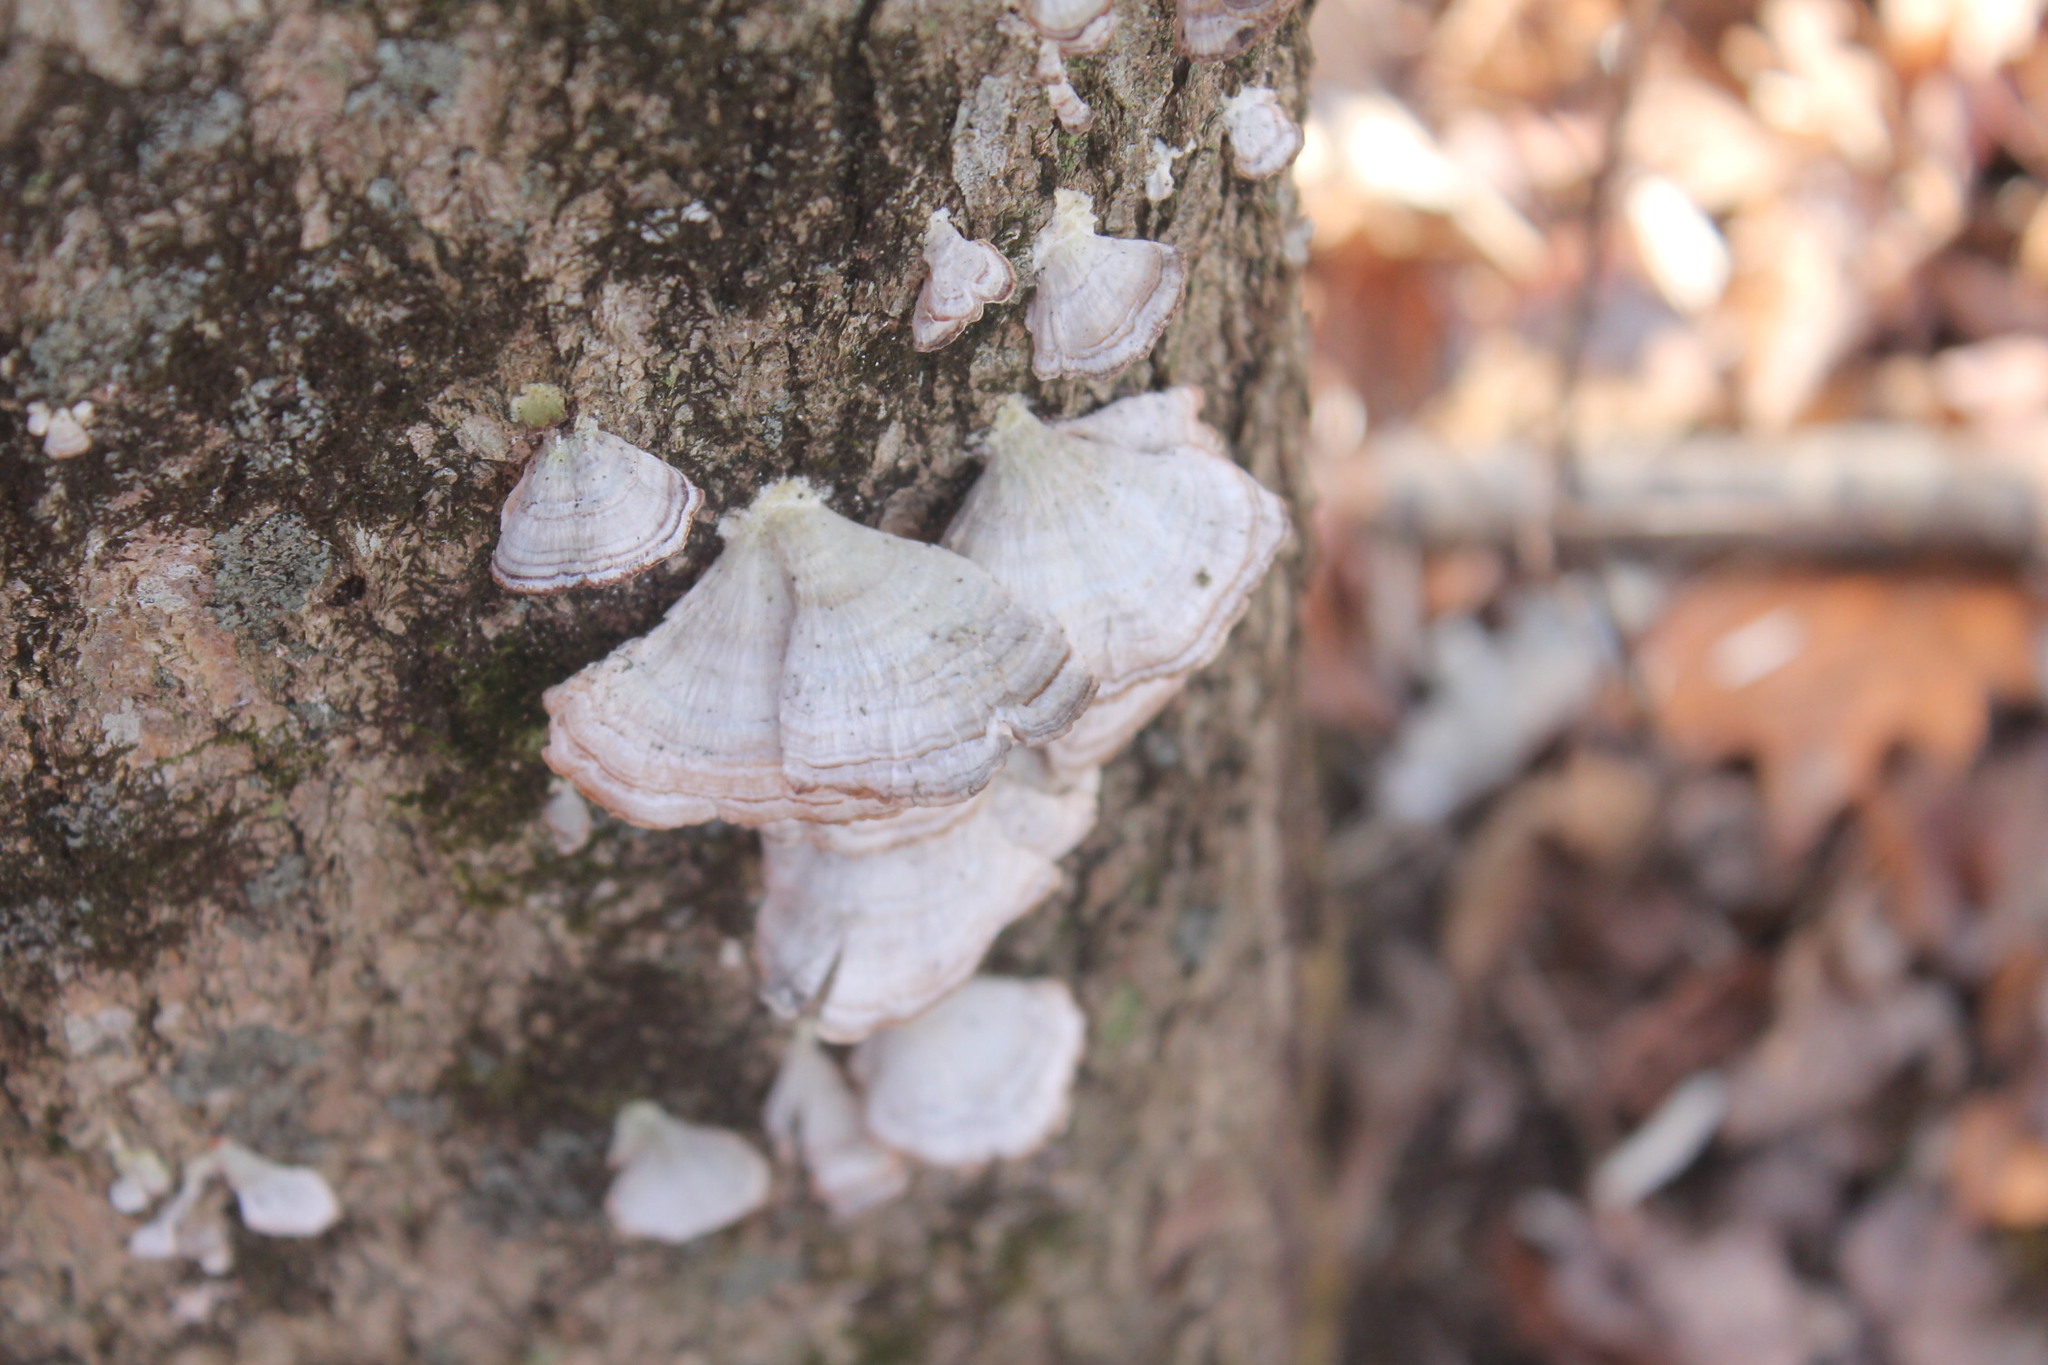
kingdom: Fungi
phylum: Basidiomycota
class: Agaricomycetes
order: Hymenochaetales
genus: Trichaptum
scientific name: Trichaptum biforme
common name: Violet-toothed polypore
